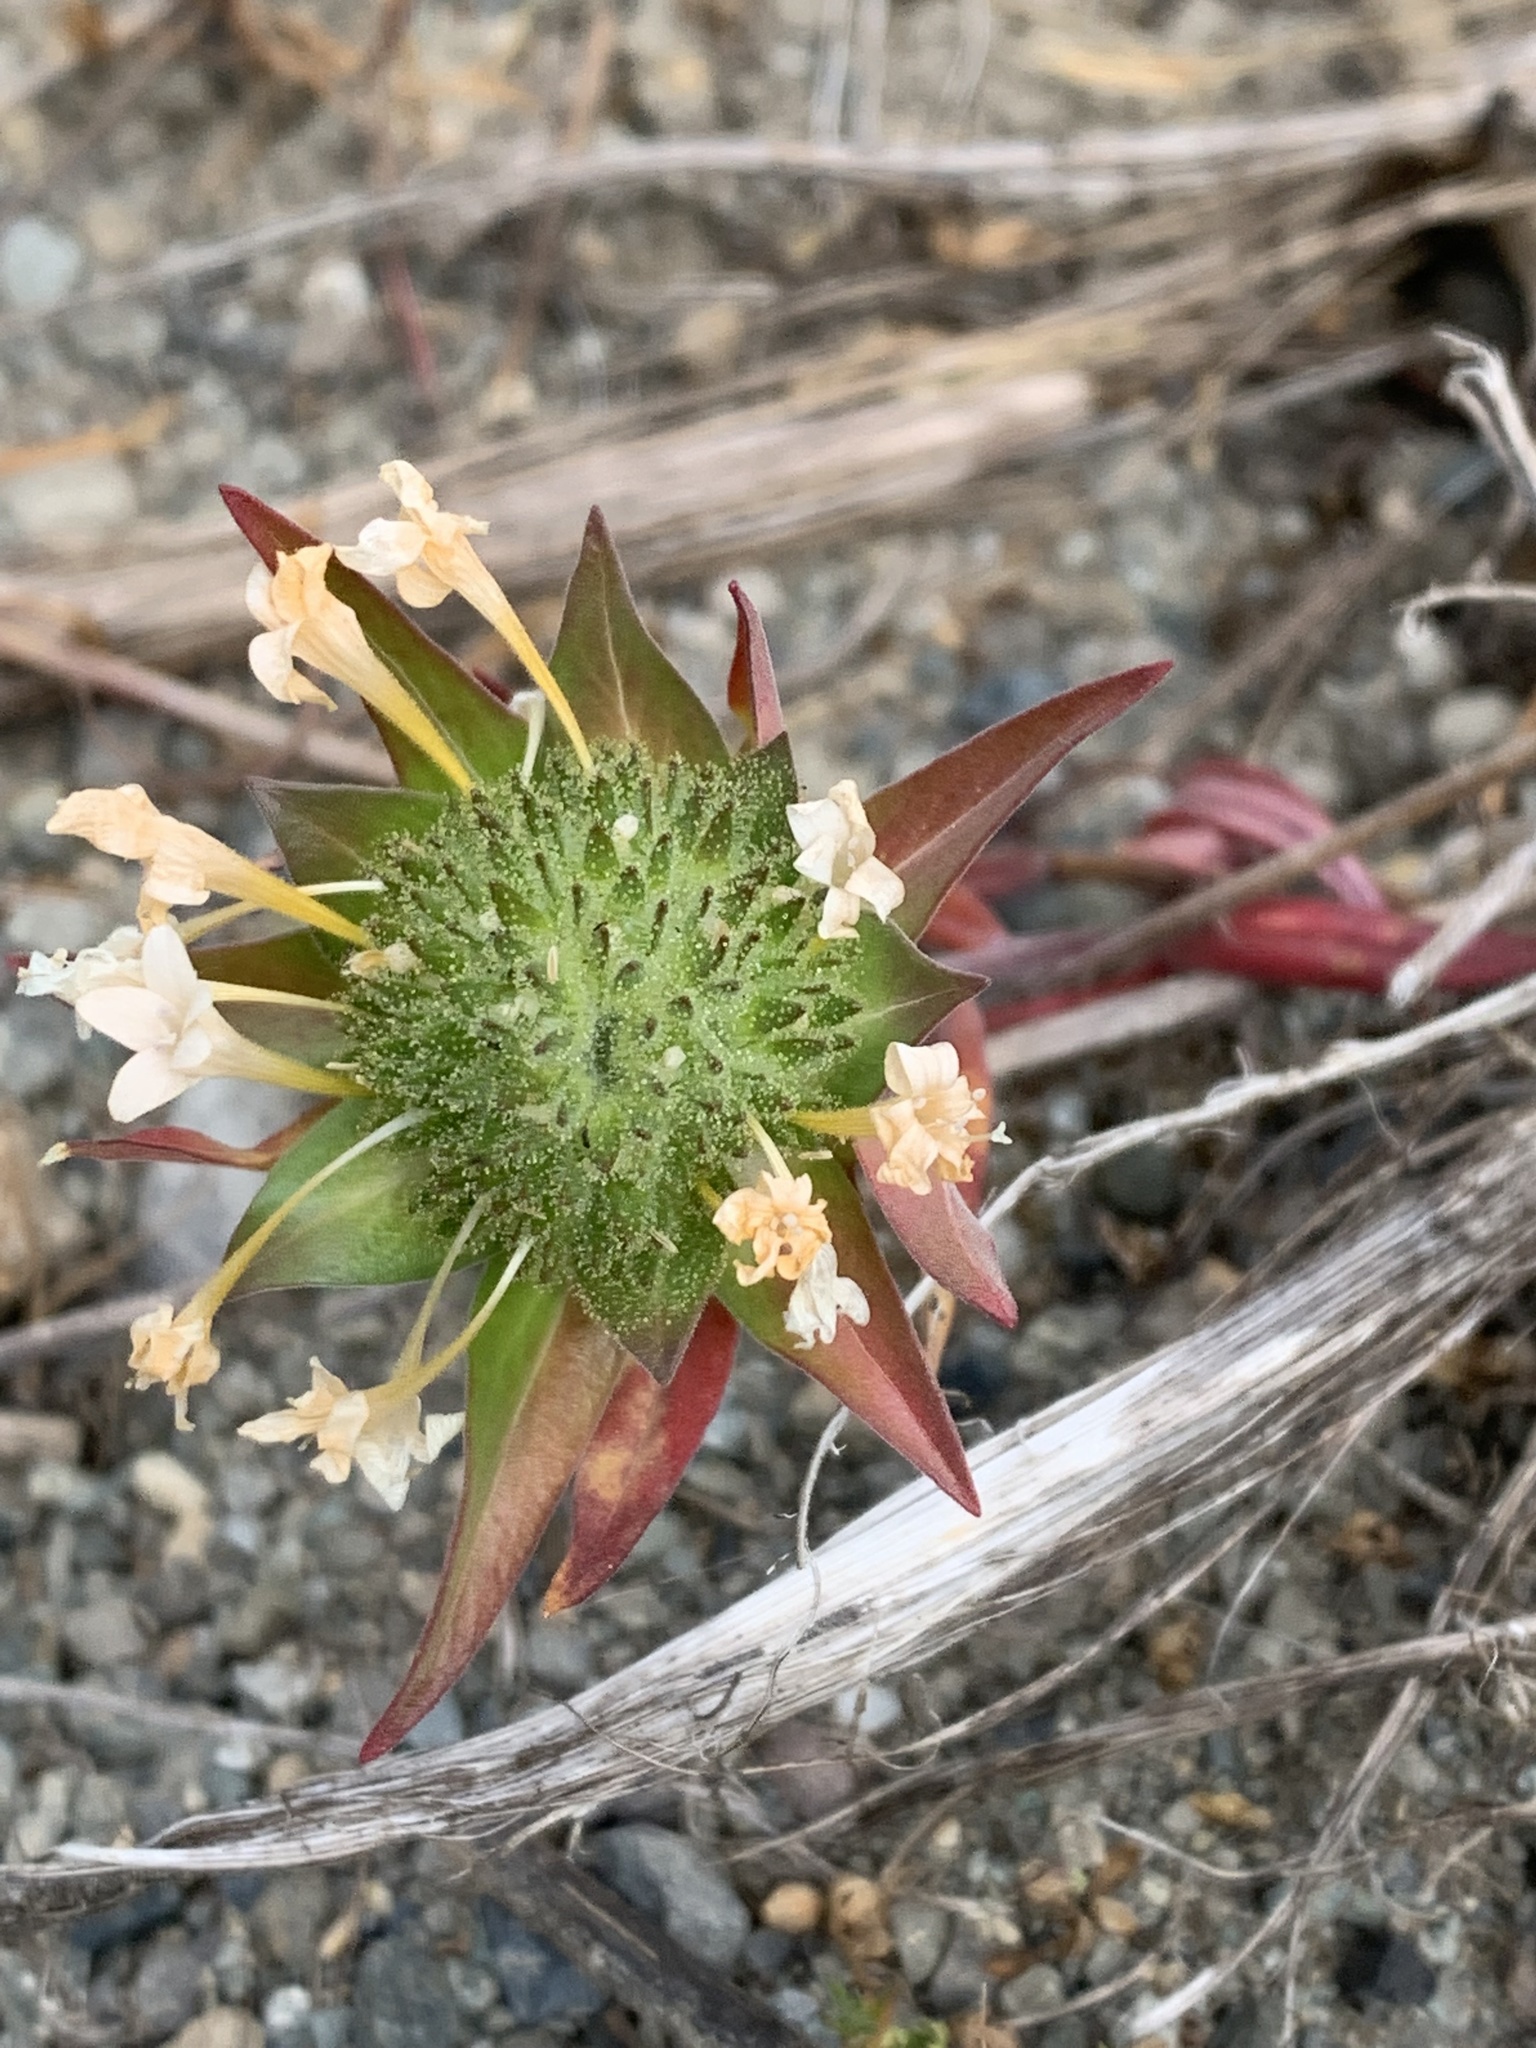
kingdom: Plantae
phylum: Tracheophyta
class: Magnoliopsida
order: Ericales
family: Polemoniaceae
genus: Collomia
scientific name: Collomia grandiflora
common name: California strawflower
